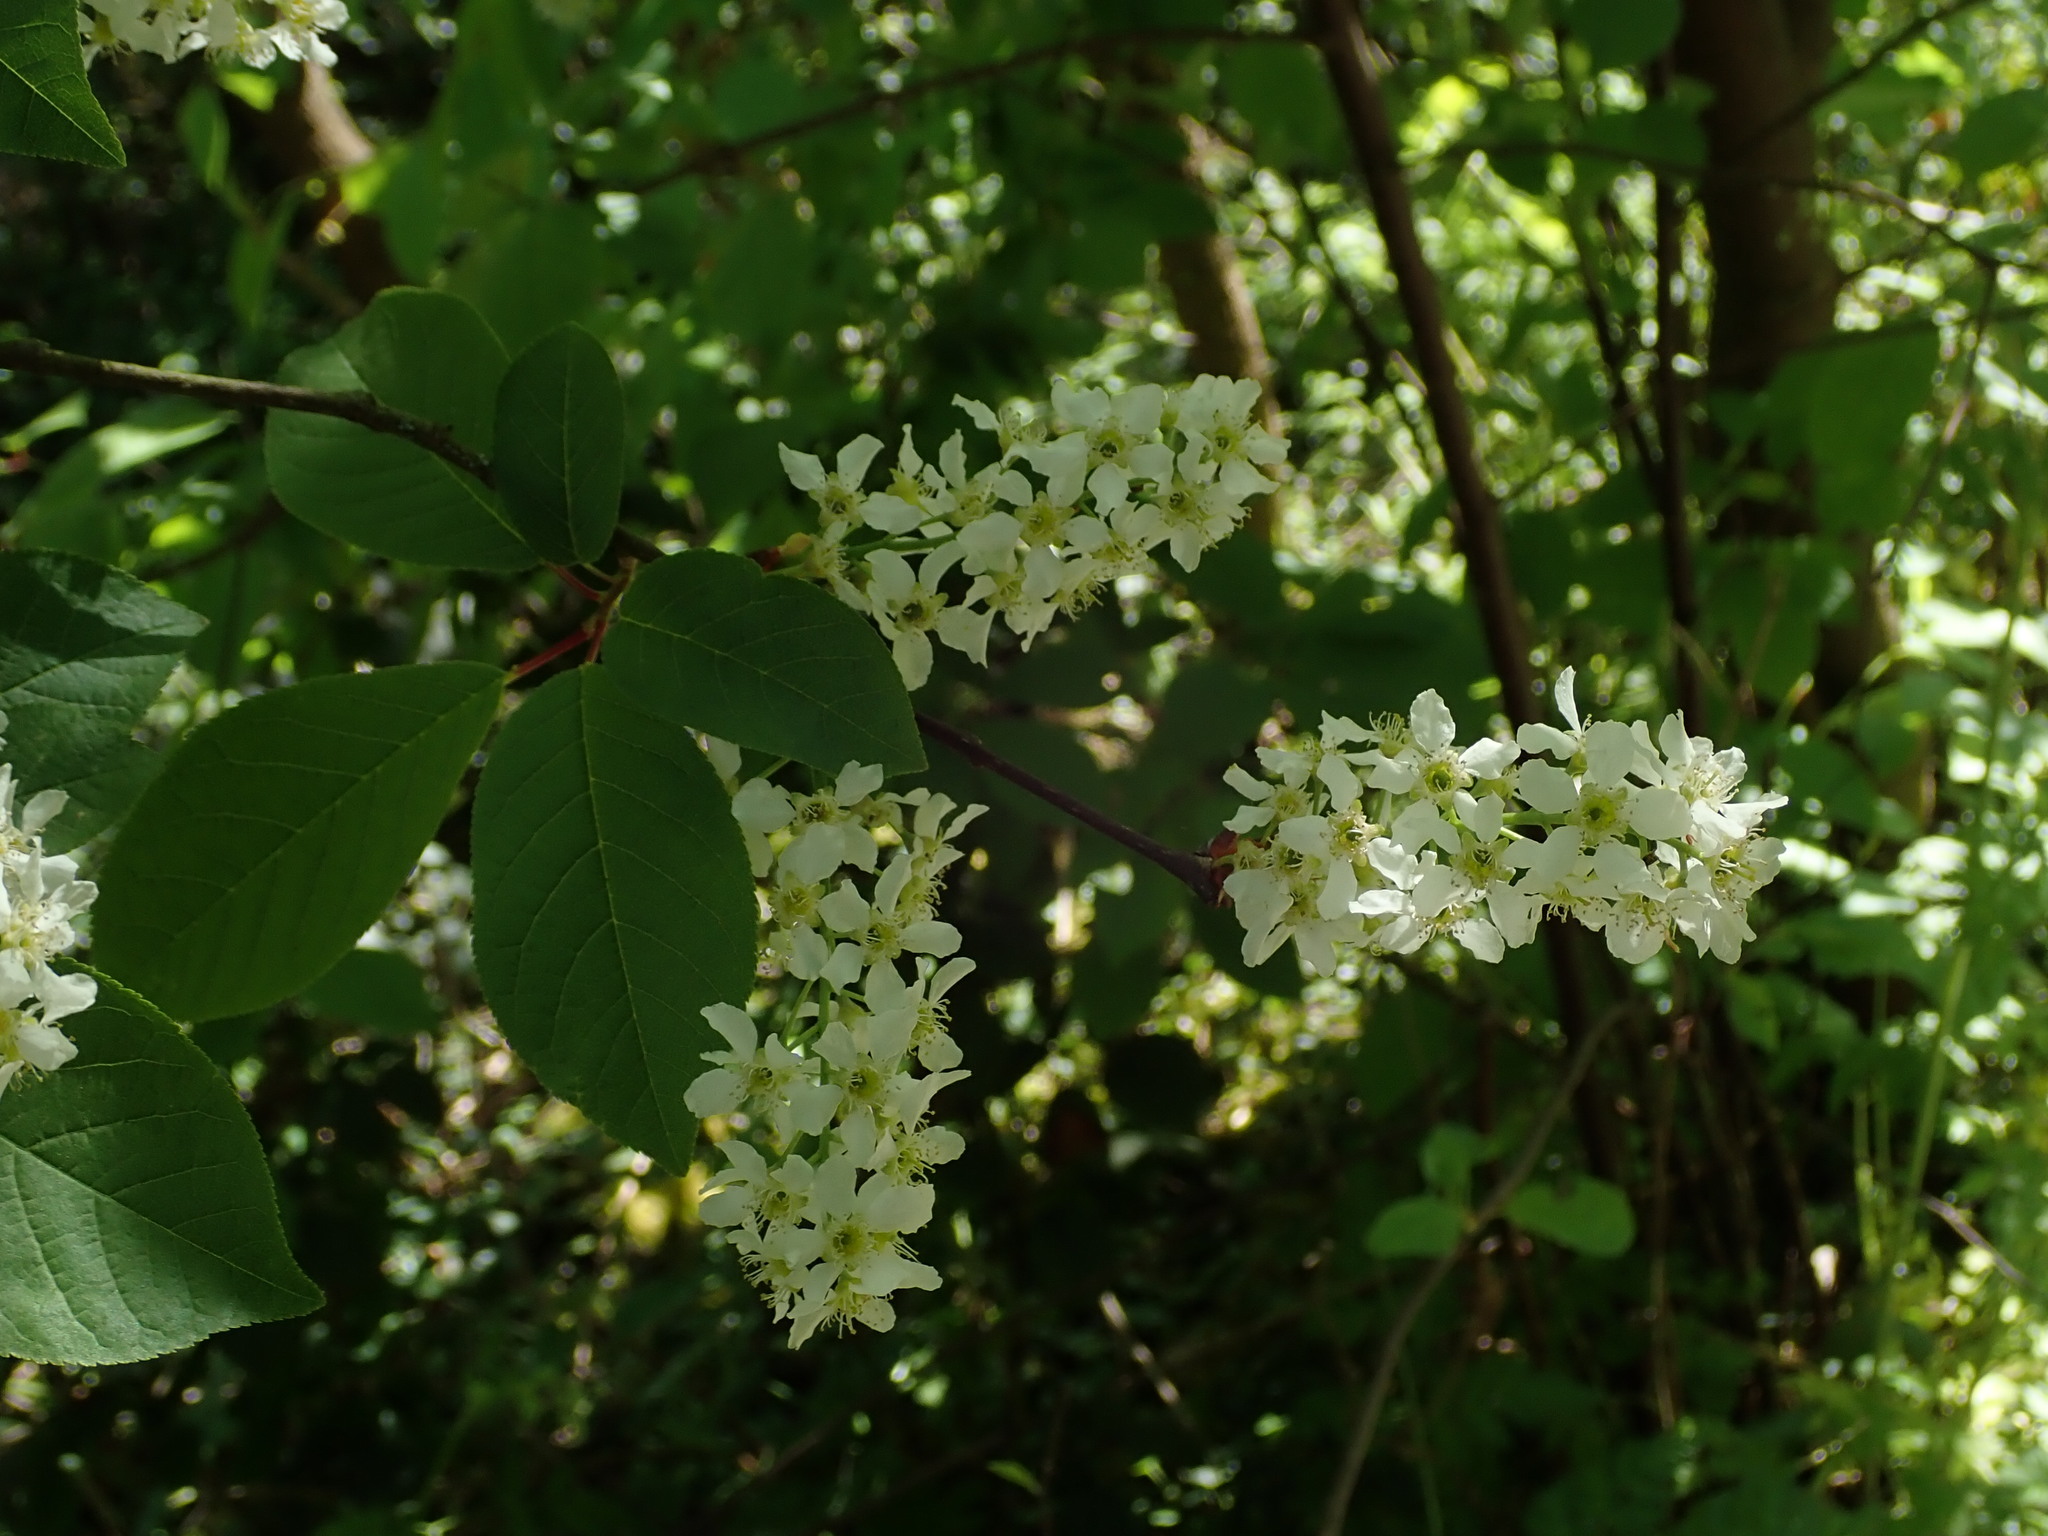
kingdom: Plantae
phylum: Tracheophyta
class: Magnoliopsida
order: Rosales
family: Rosaceae
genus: Prunus
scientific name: Prunus padus
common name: Bird cherry
